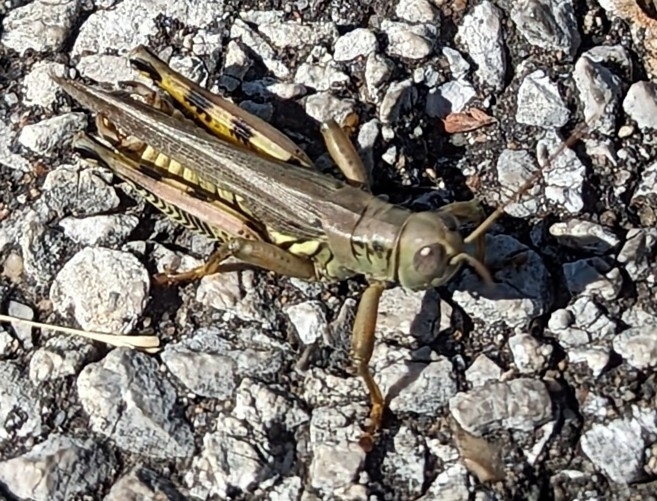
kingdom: Animalia
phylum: Arthropoda
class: Insecta
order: Orthoptera
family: Acrididae
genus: Melanoplus
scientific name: Melanoplus differentialis
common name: Differential grasshopper
